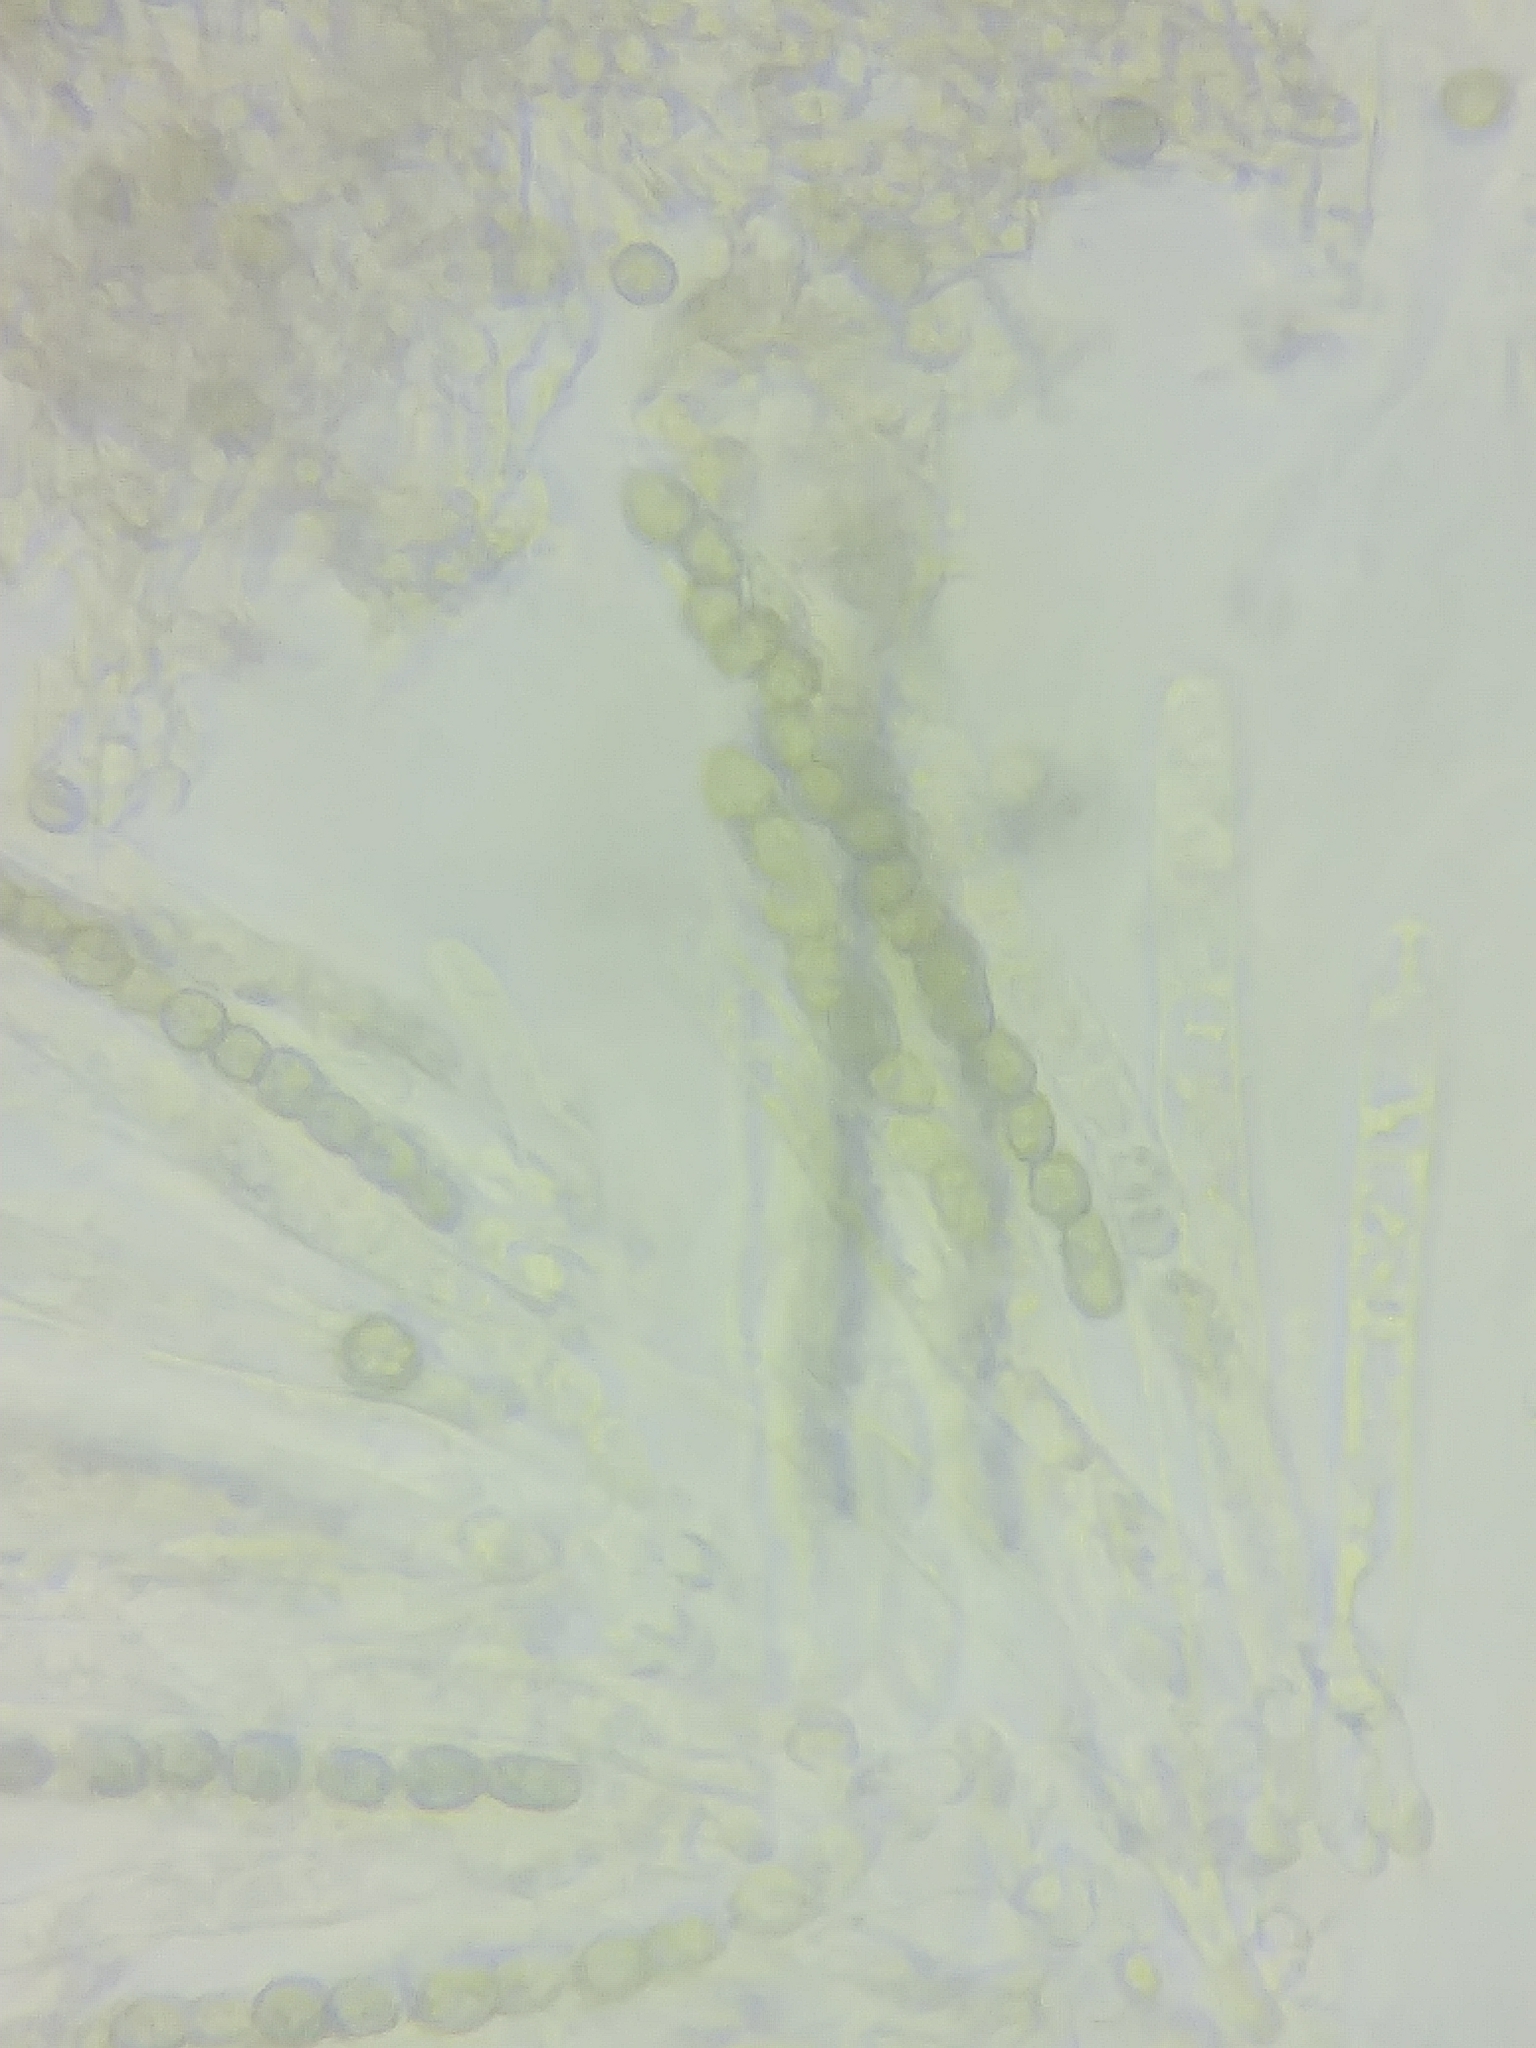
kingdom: Fungi
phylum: Ascomycota
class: Sordariomycetes
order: Hypocreales
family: Hypocreaceae
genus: Trichoderma
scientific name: Trichoderma strictipile
